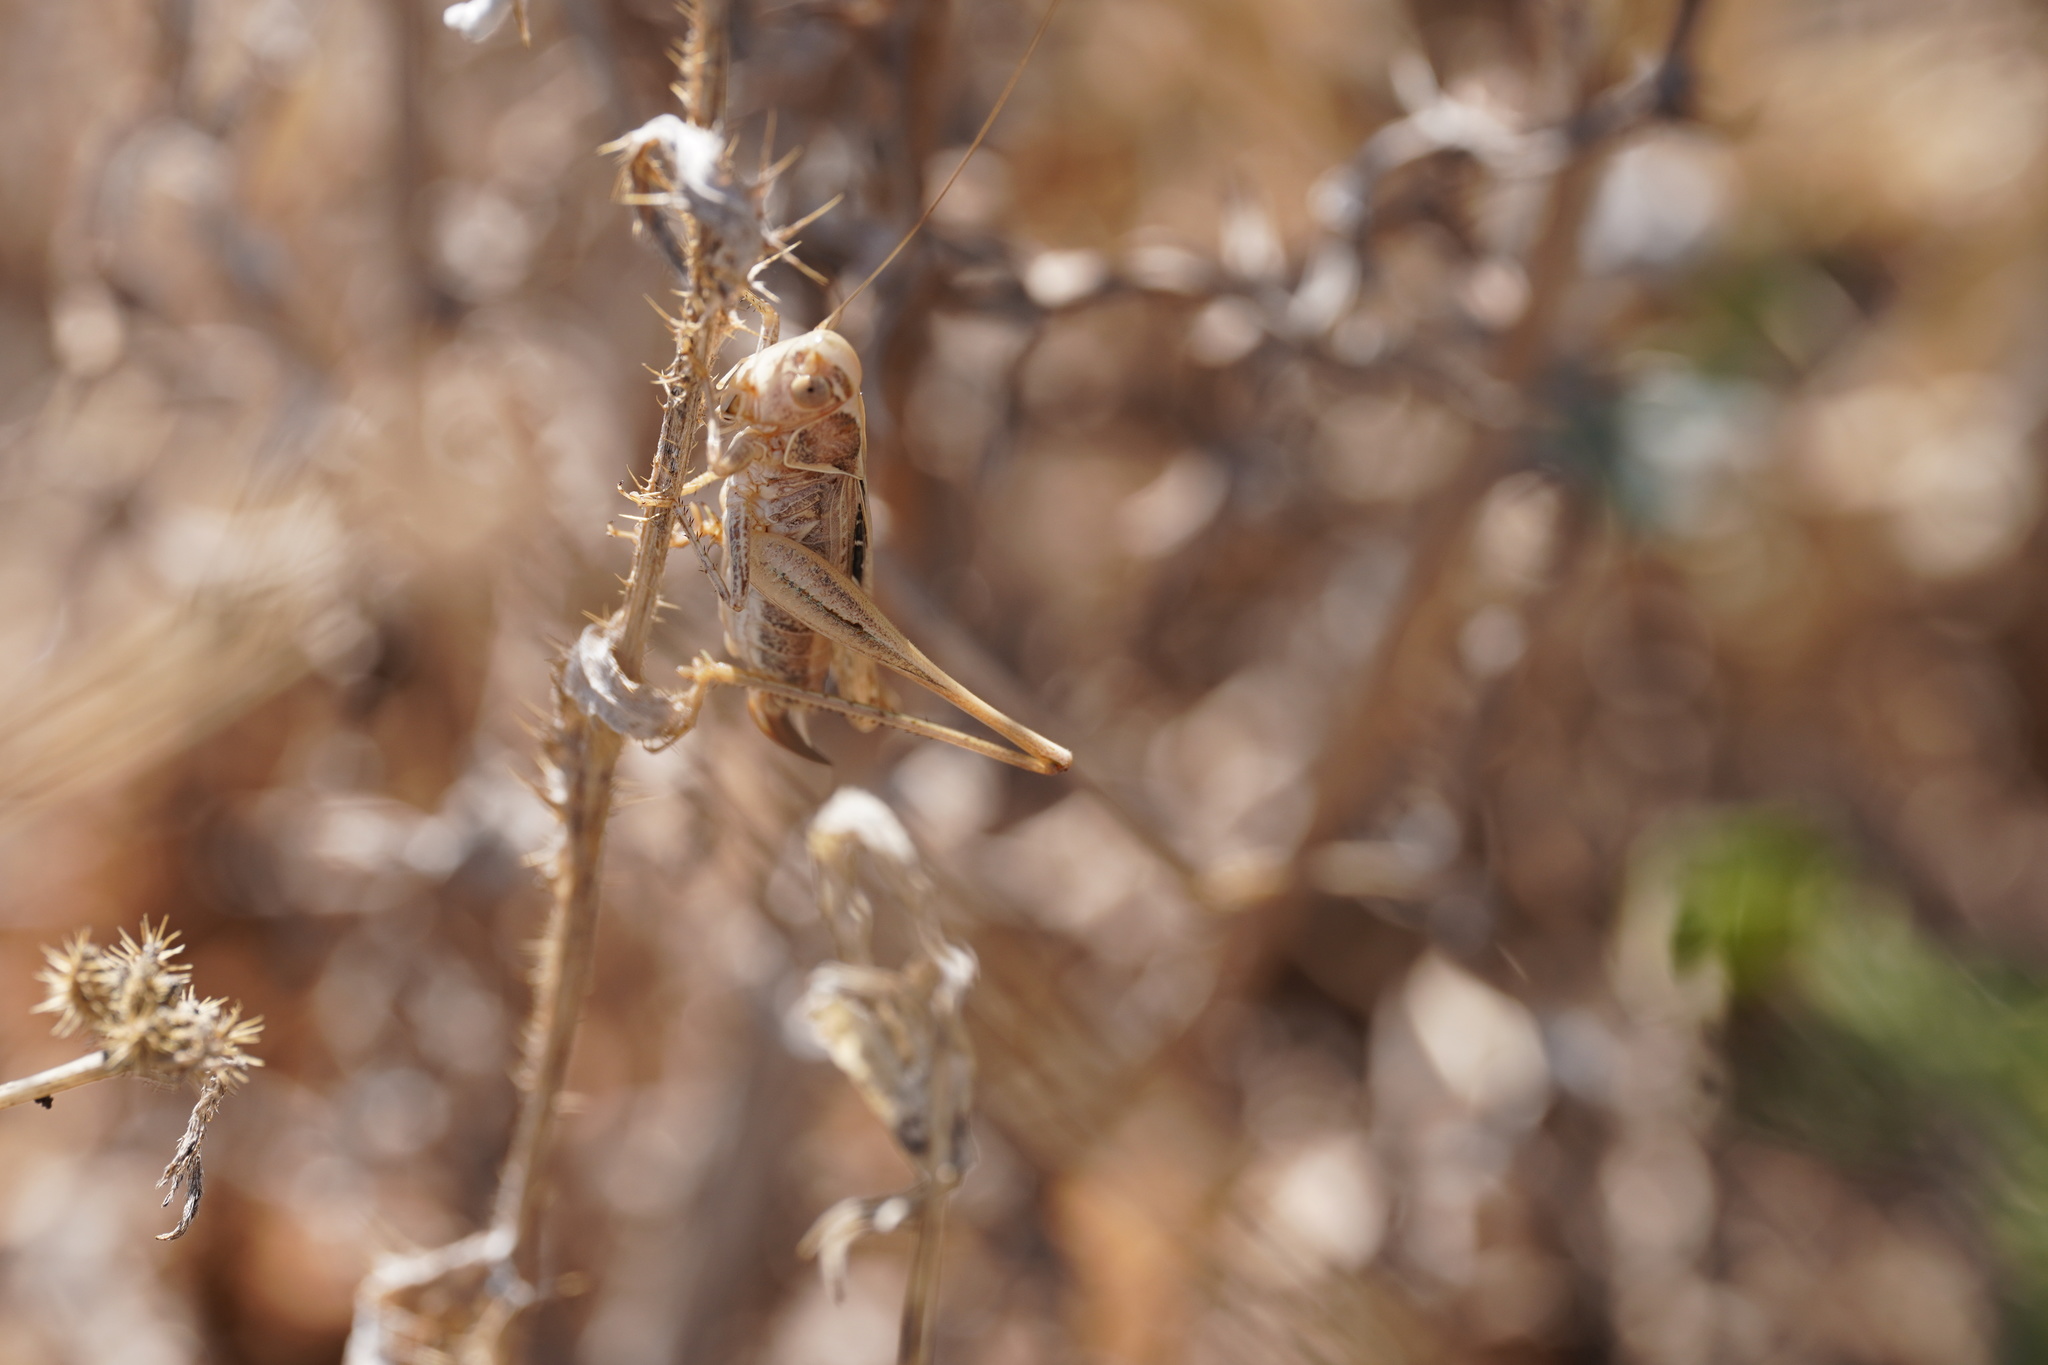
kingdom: Animalia
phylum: Arthropoda
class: Insecta
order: Orthoptera
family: Tettigoniidae
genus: Tessellana
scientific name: Tessellana tessellata
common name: Grasshopper
